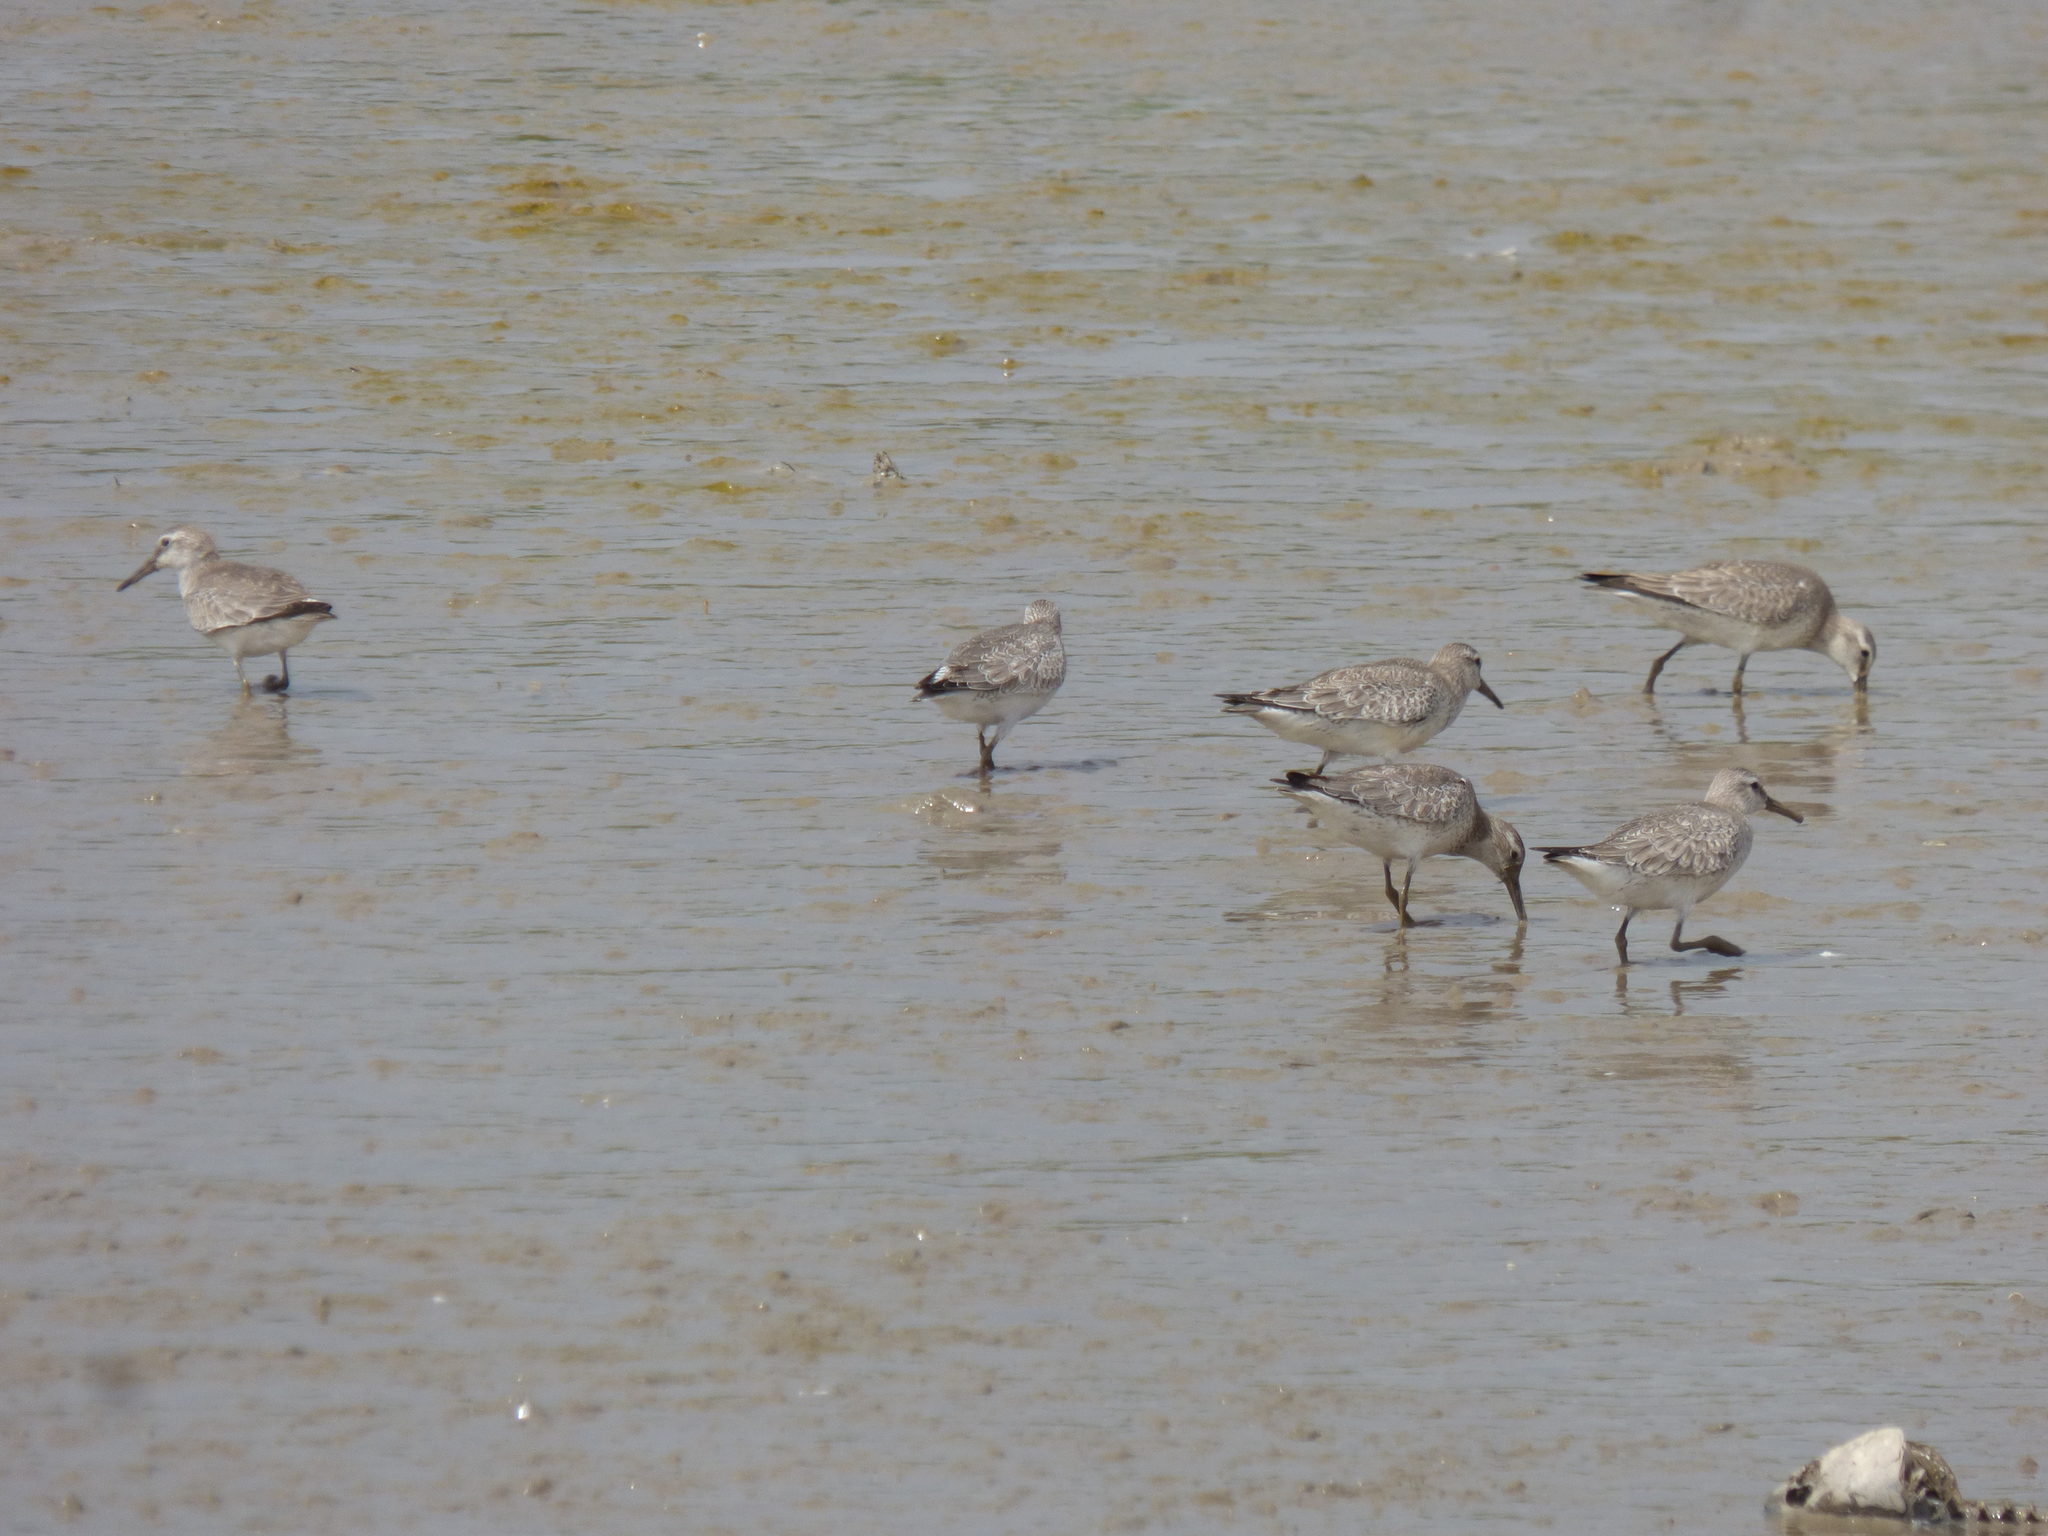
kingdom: Animalia
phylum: Chordata
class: Aves
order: Charadriiformes
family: Scolopacidae
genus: Calidris
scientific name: Calidris canutus
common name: Red knot
